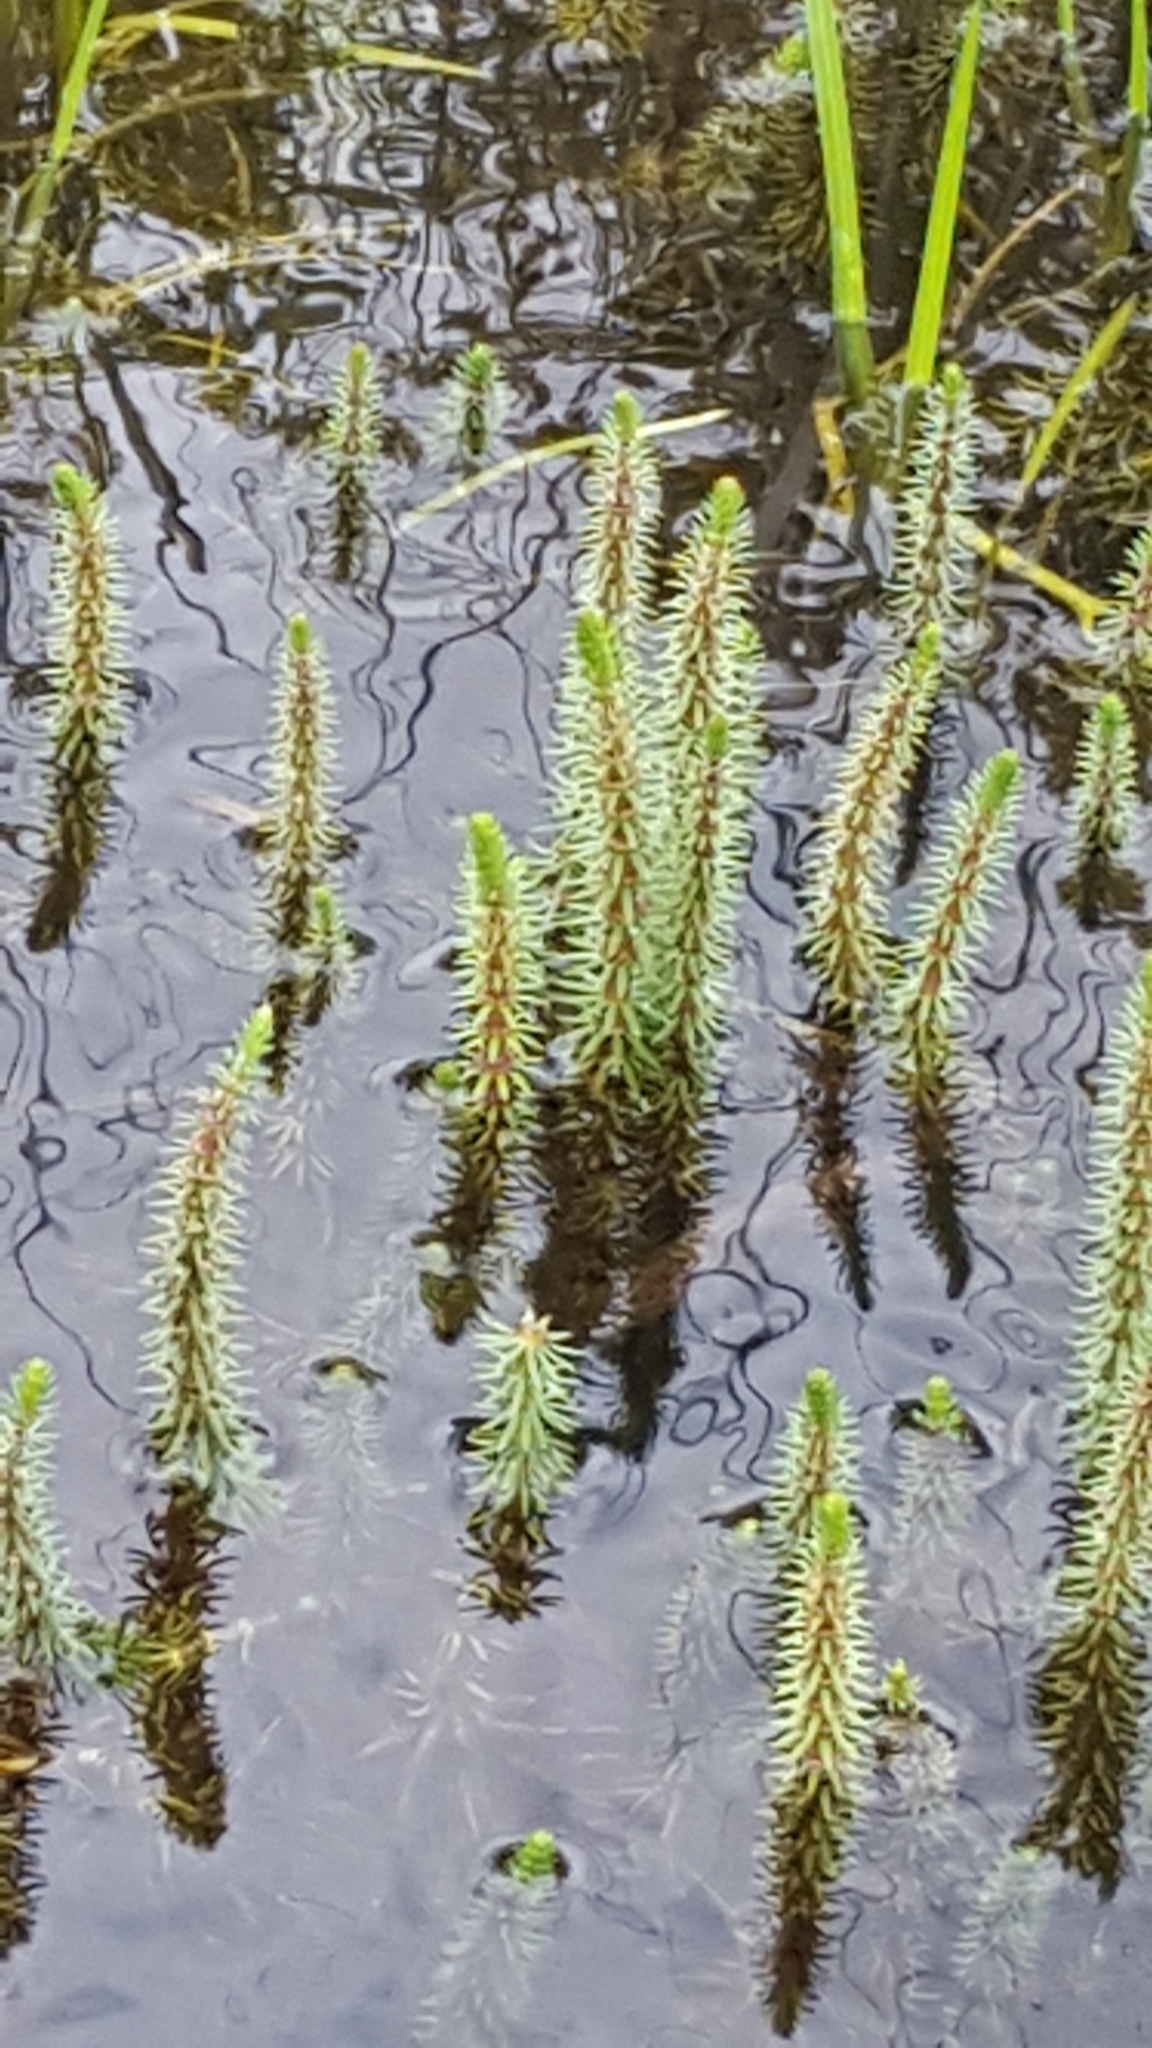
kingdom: Plantae
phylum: Tracheophyta
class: Magnoliopsida
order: Lamiales
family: Plantaginaceae
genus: Hippuris
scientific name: Hippuris vulgaris
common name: Mare's-tail
